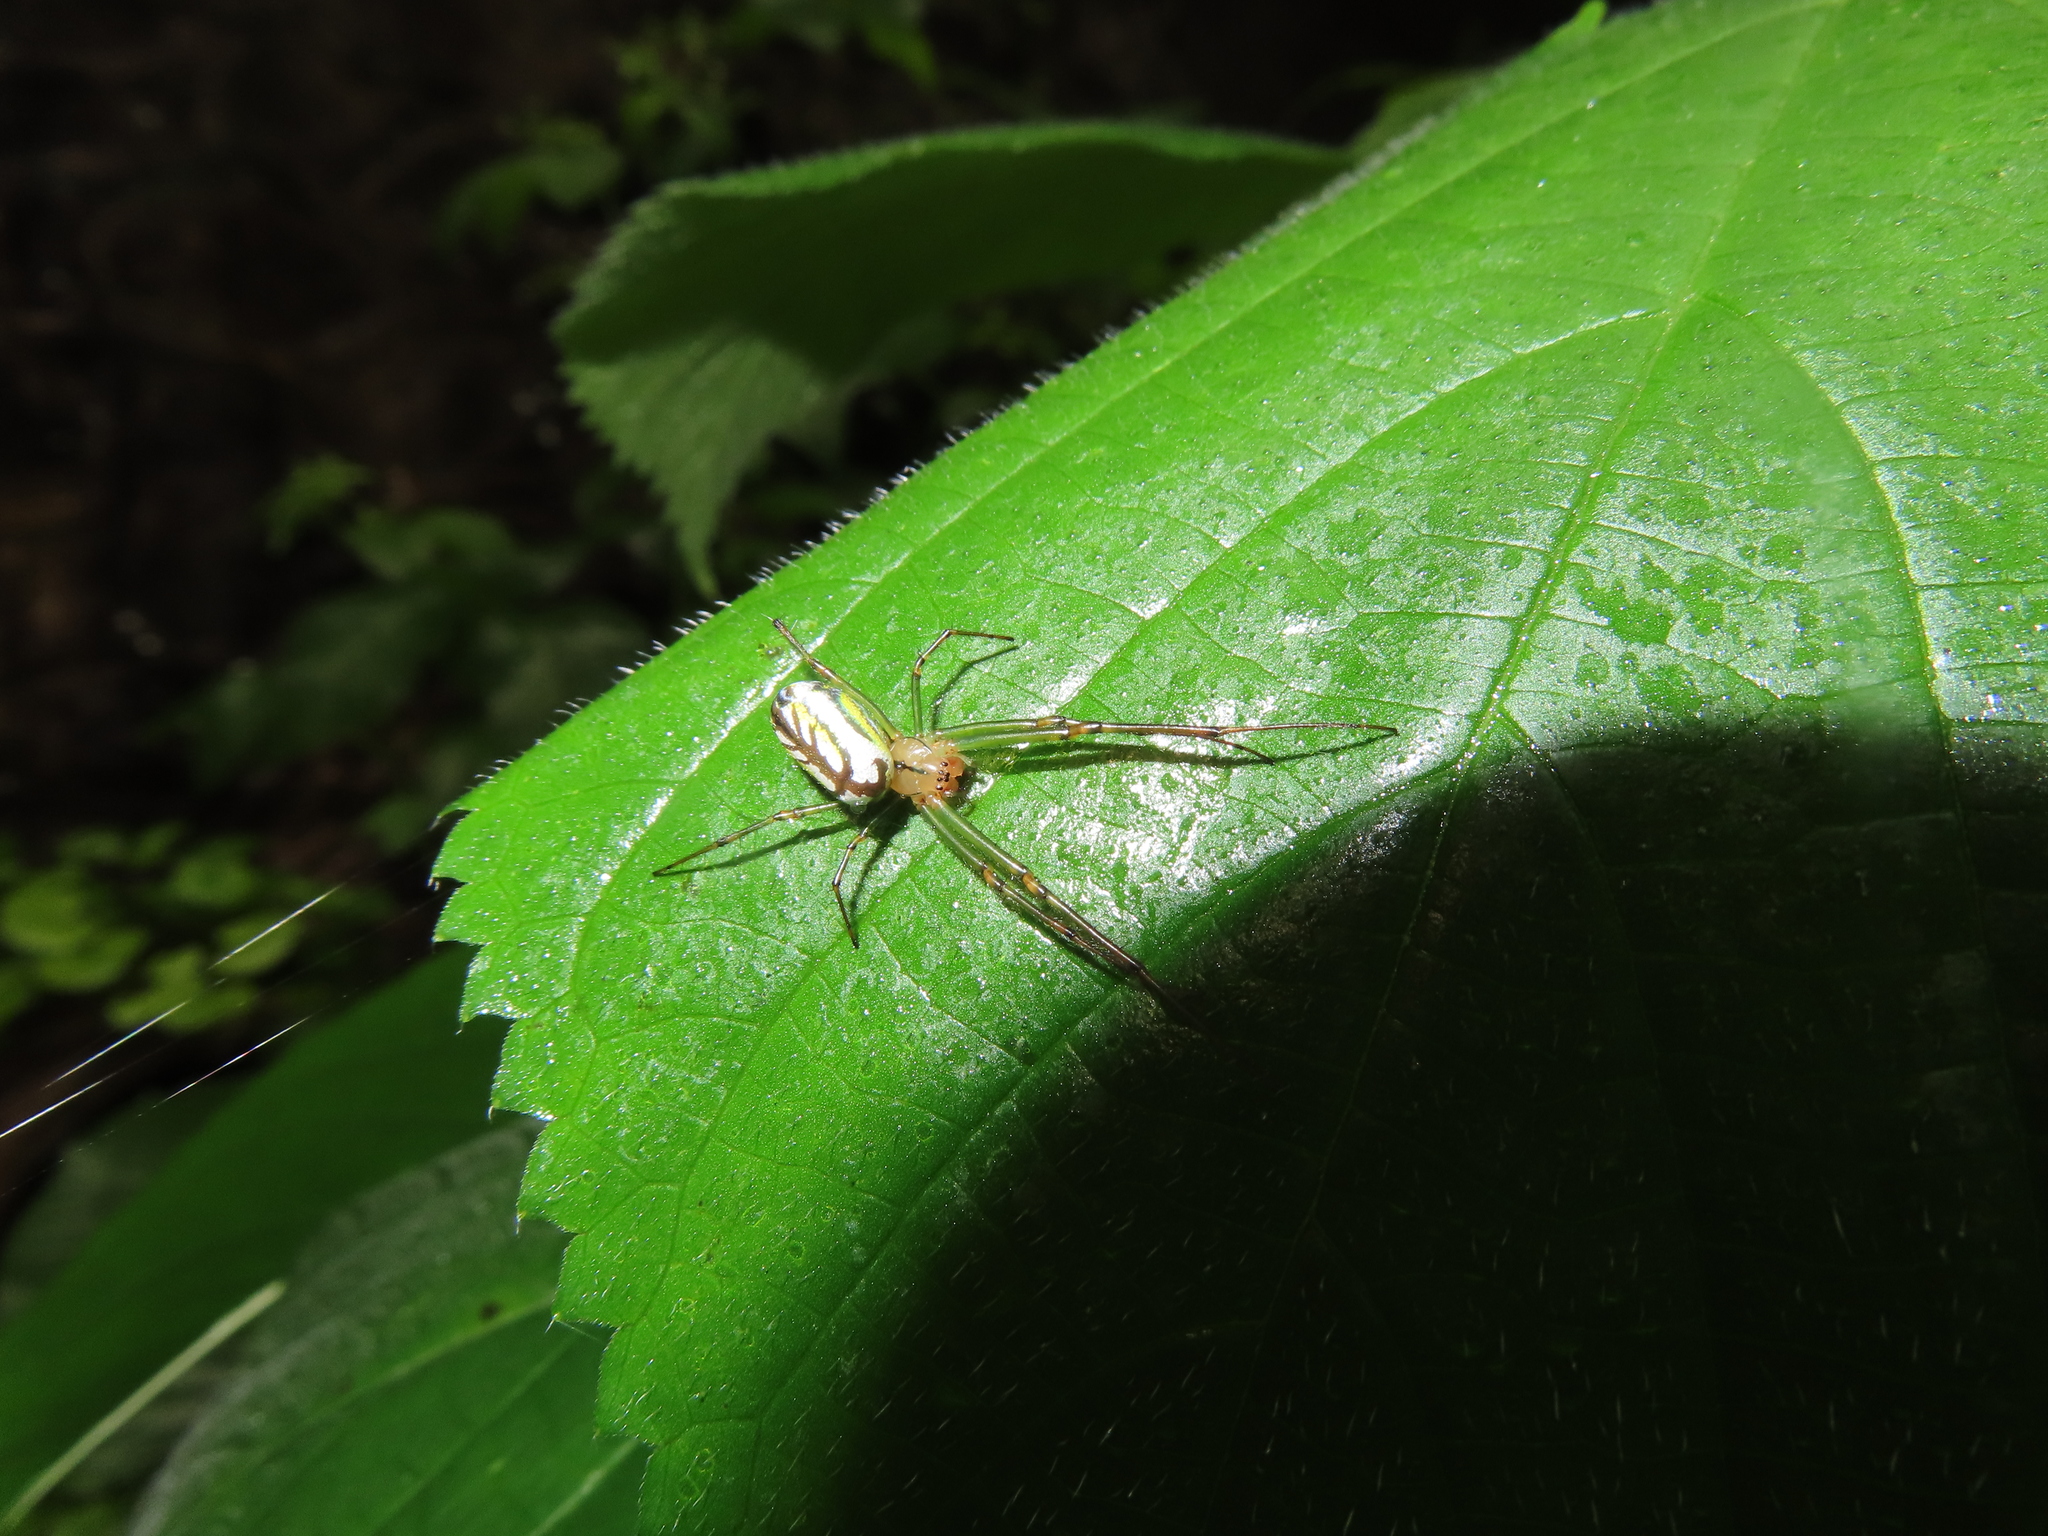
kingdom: Animalia
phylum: Arthropoda
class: Arachnida
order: Araneae
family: Tetragnathidae
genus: Leucauge
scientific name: Leucauge venusta
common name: Longjawed orb weavers
